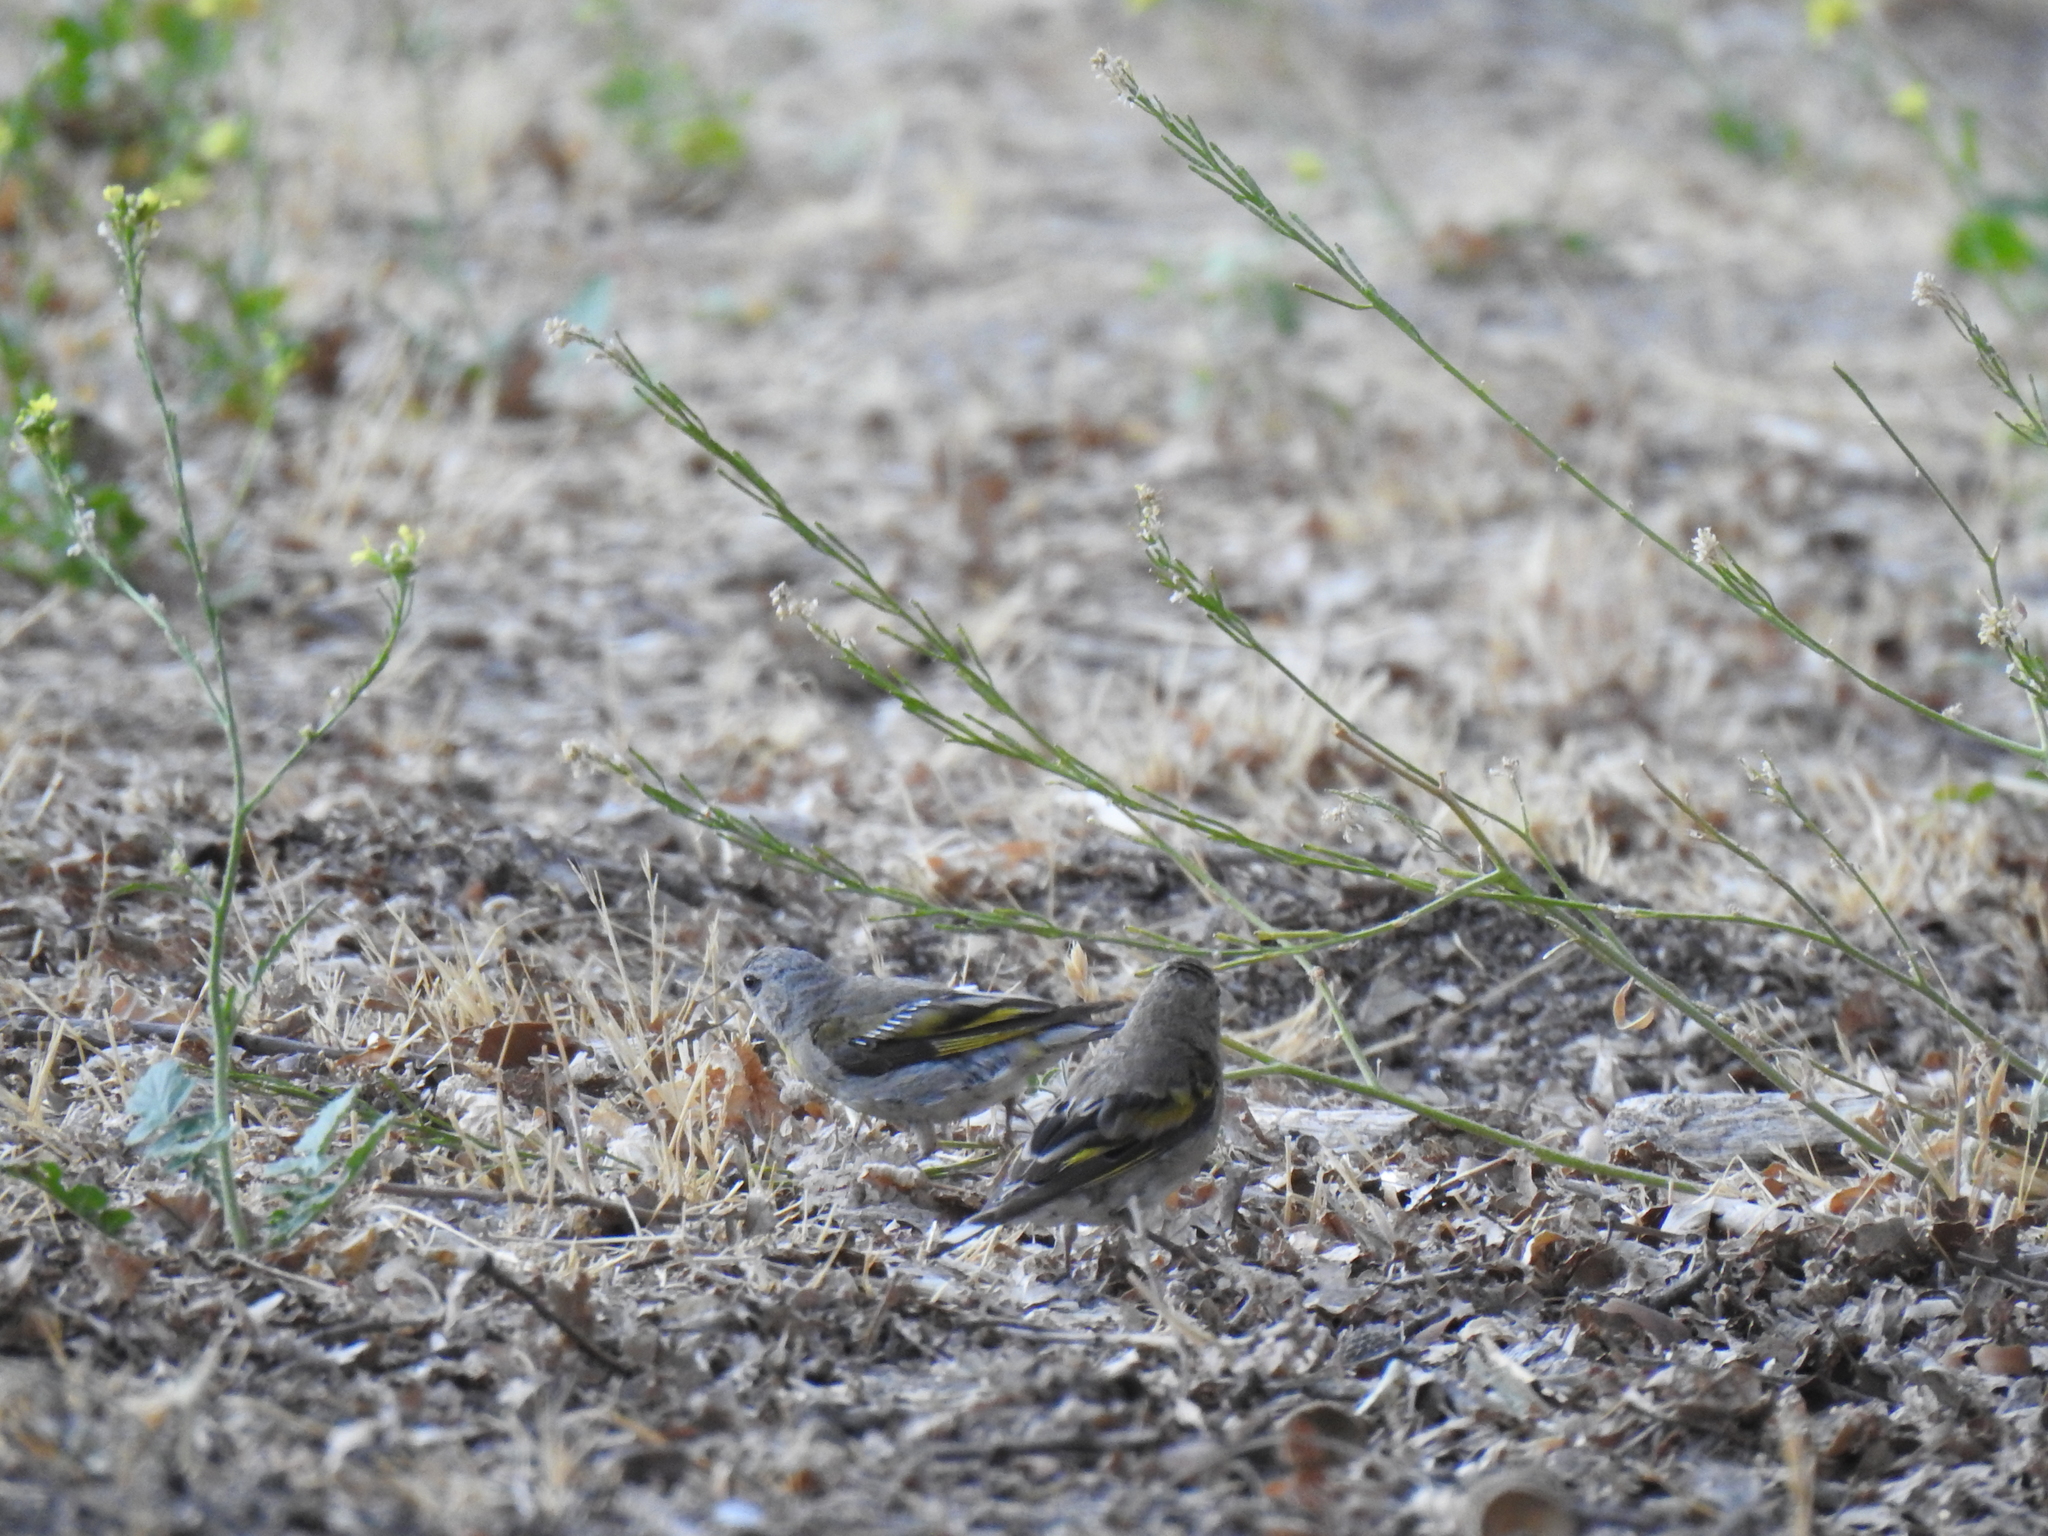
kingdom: Animalia
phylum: Chordata
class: Aves
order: Passeriformes
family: Fringillidae
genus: Spinus
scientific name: Spinus lawrencei
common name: Lawrence's goldfinch
